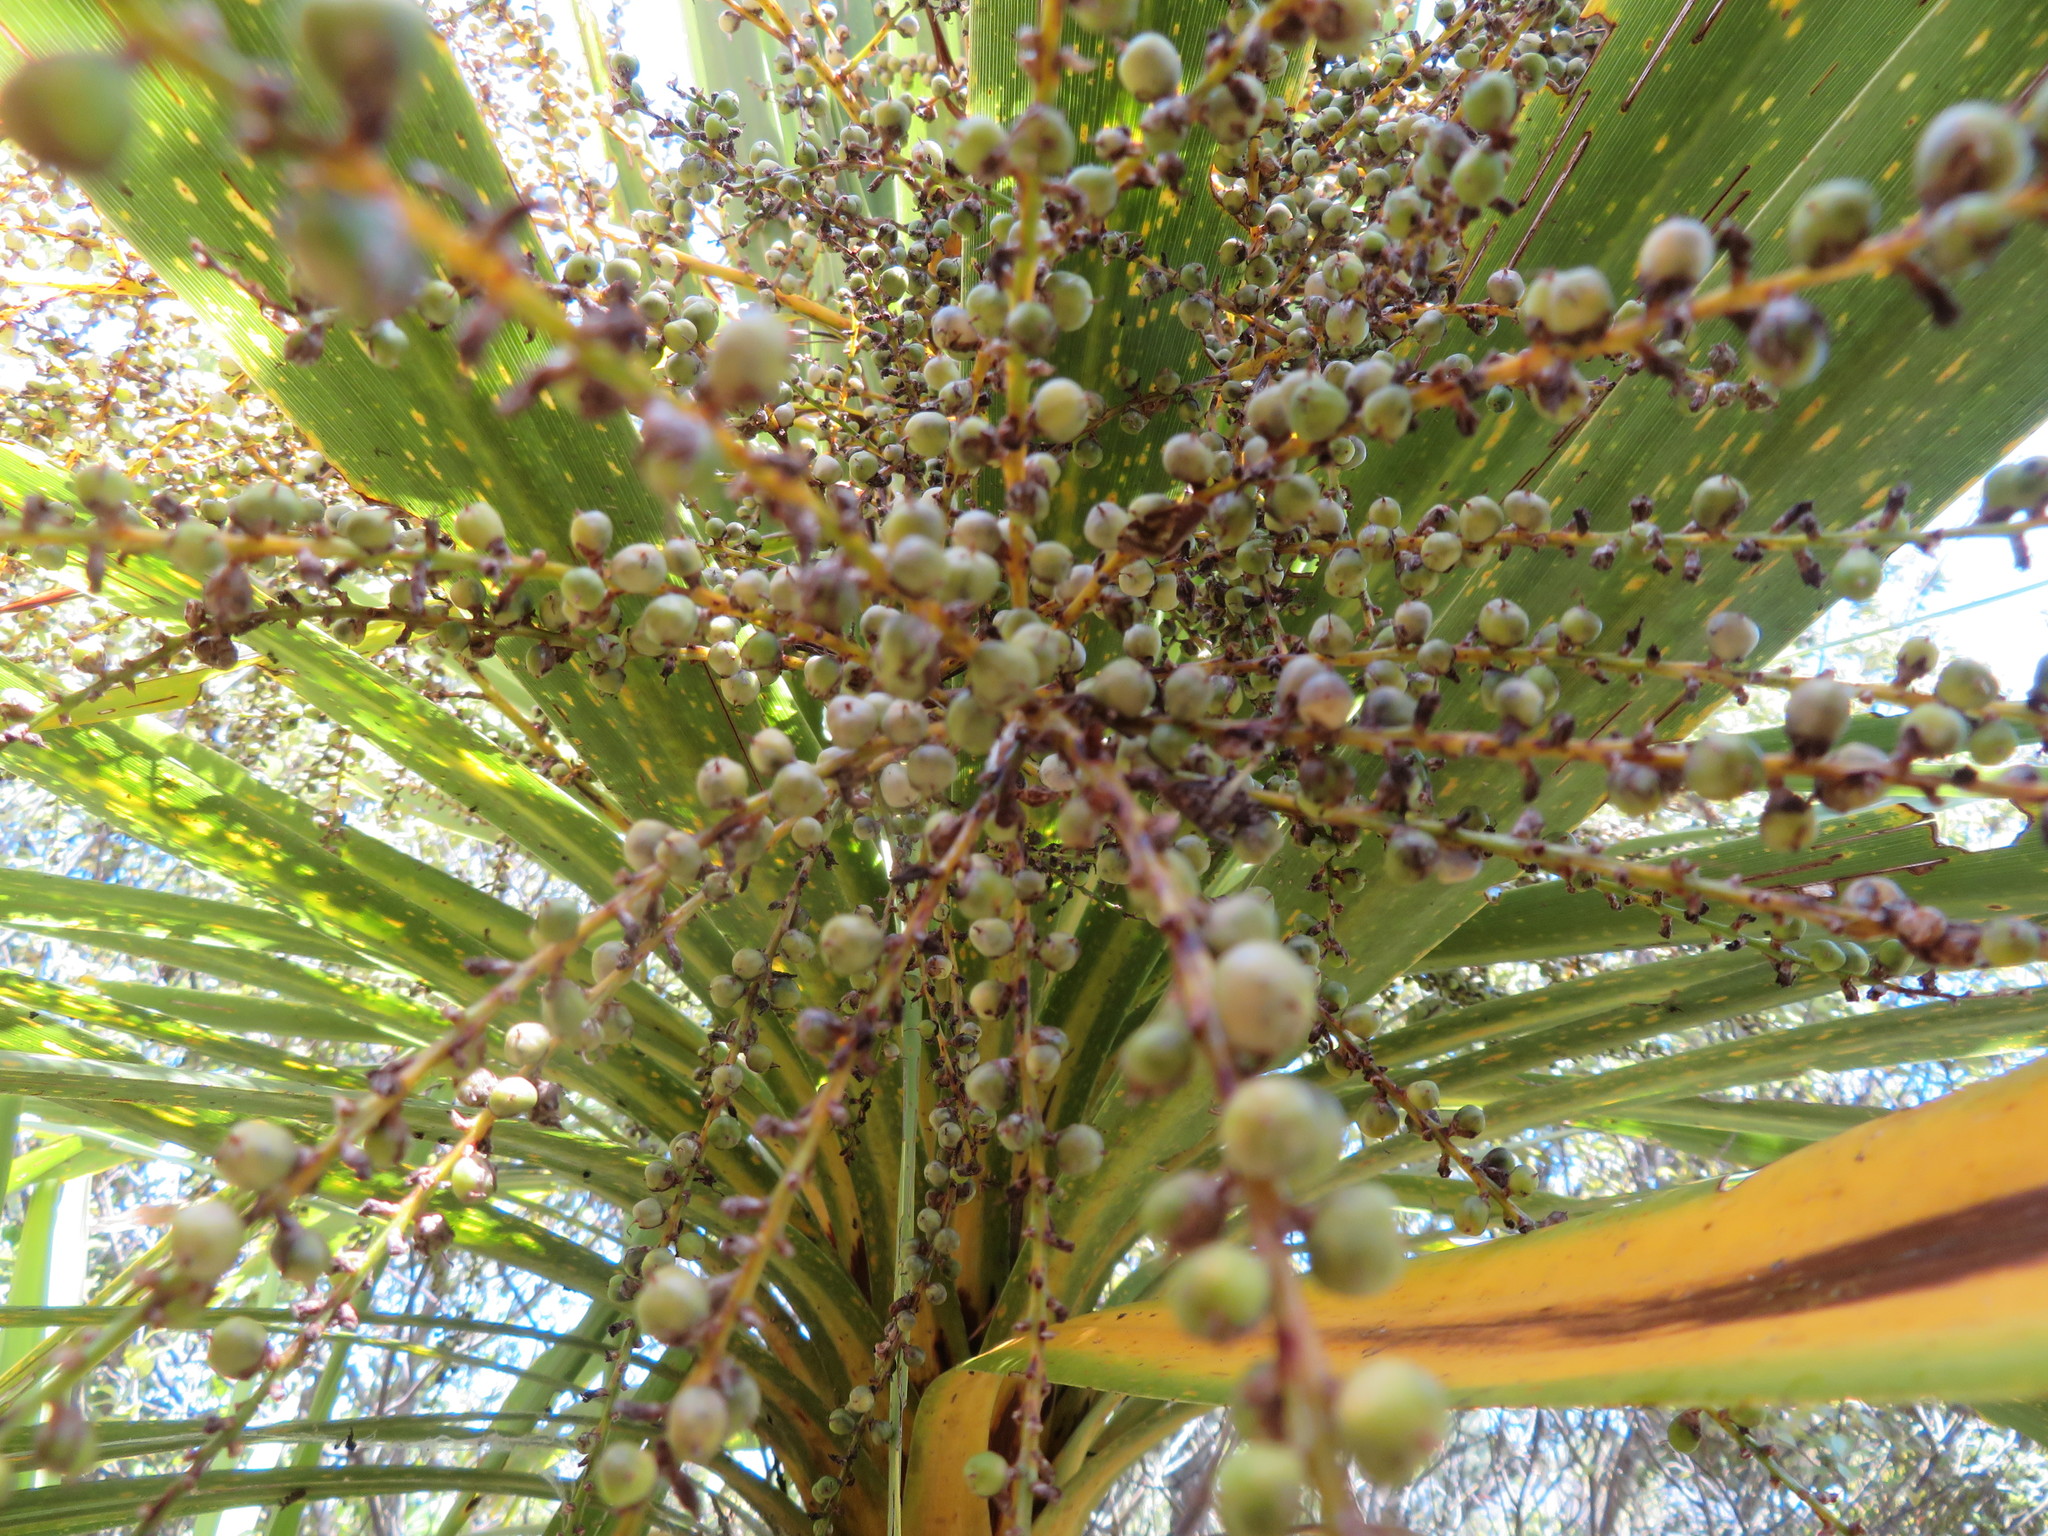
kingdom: Plantae
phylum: Tracheophyta
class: Liliopsida
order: Asparagales
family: Asparagaceae
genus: Cordyline
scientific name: Cordyline australis
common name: Cabbage-palm
